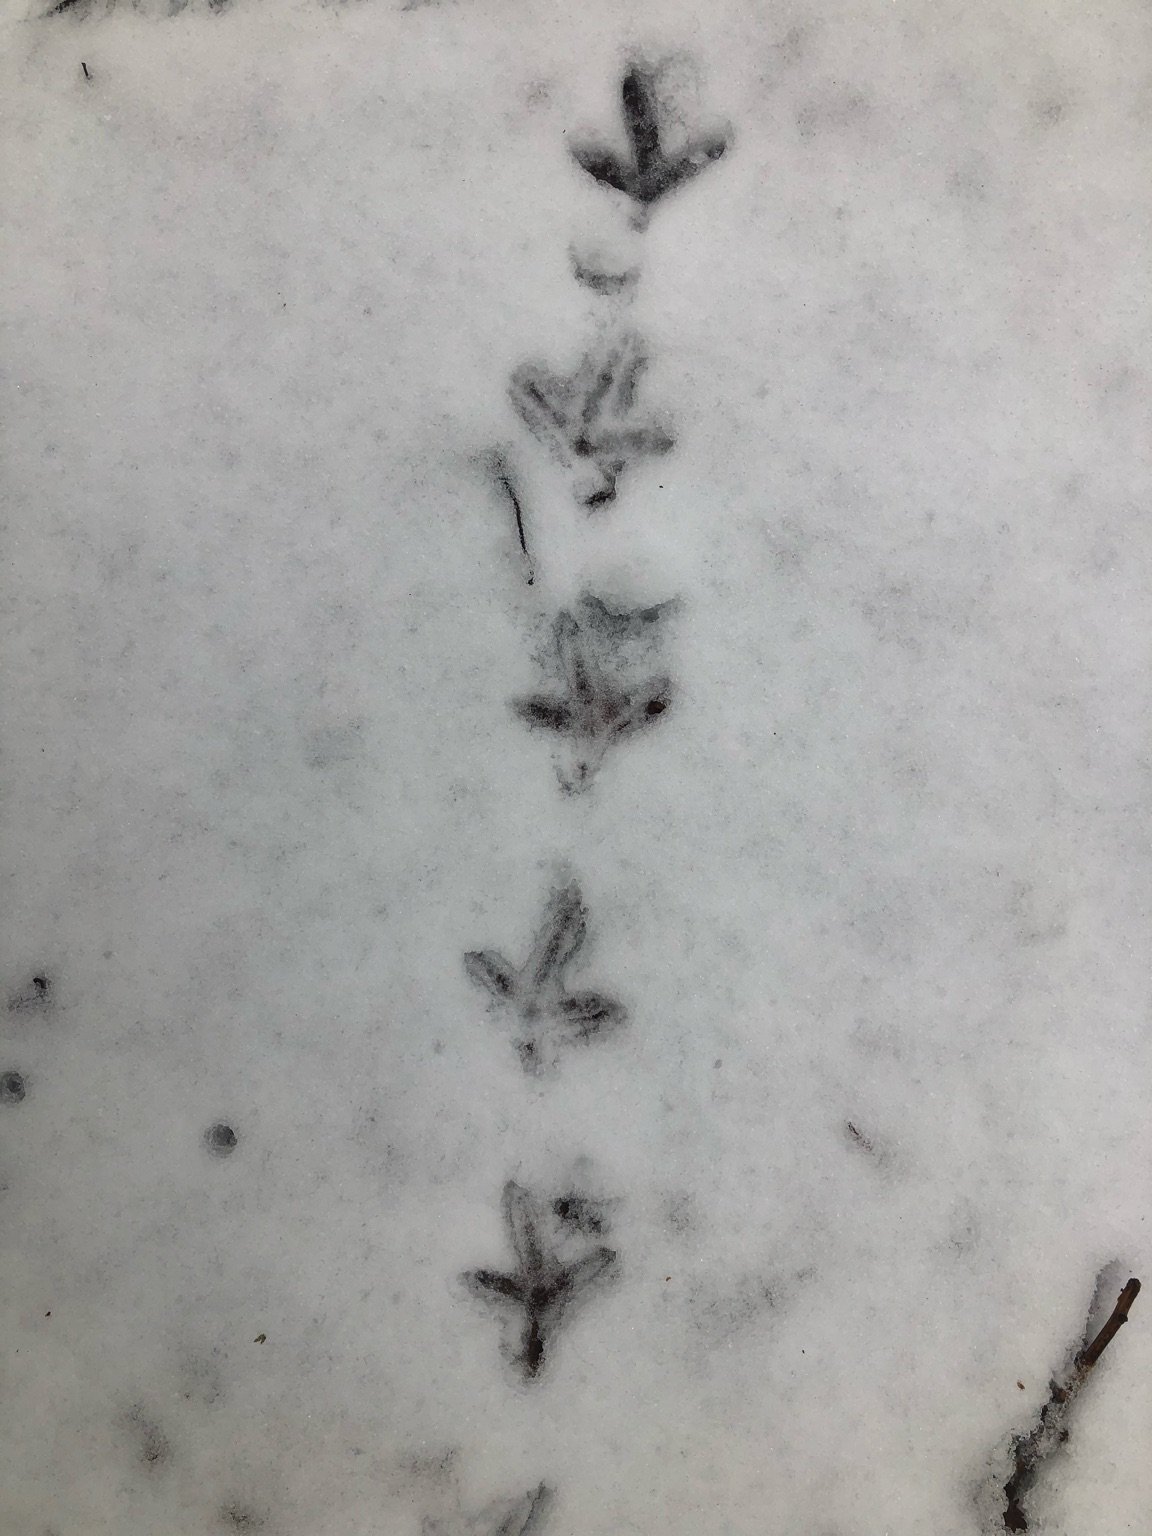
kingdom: Animalia
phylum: Chordata
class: Aves
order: Galliformes
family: Phasianidae
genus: Bonasa
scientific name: Bonasa umbellus
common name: Ruffed grouse
